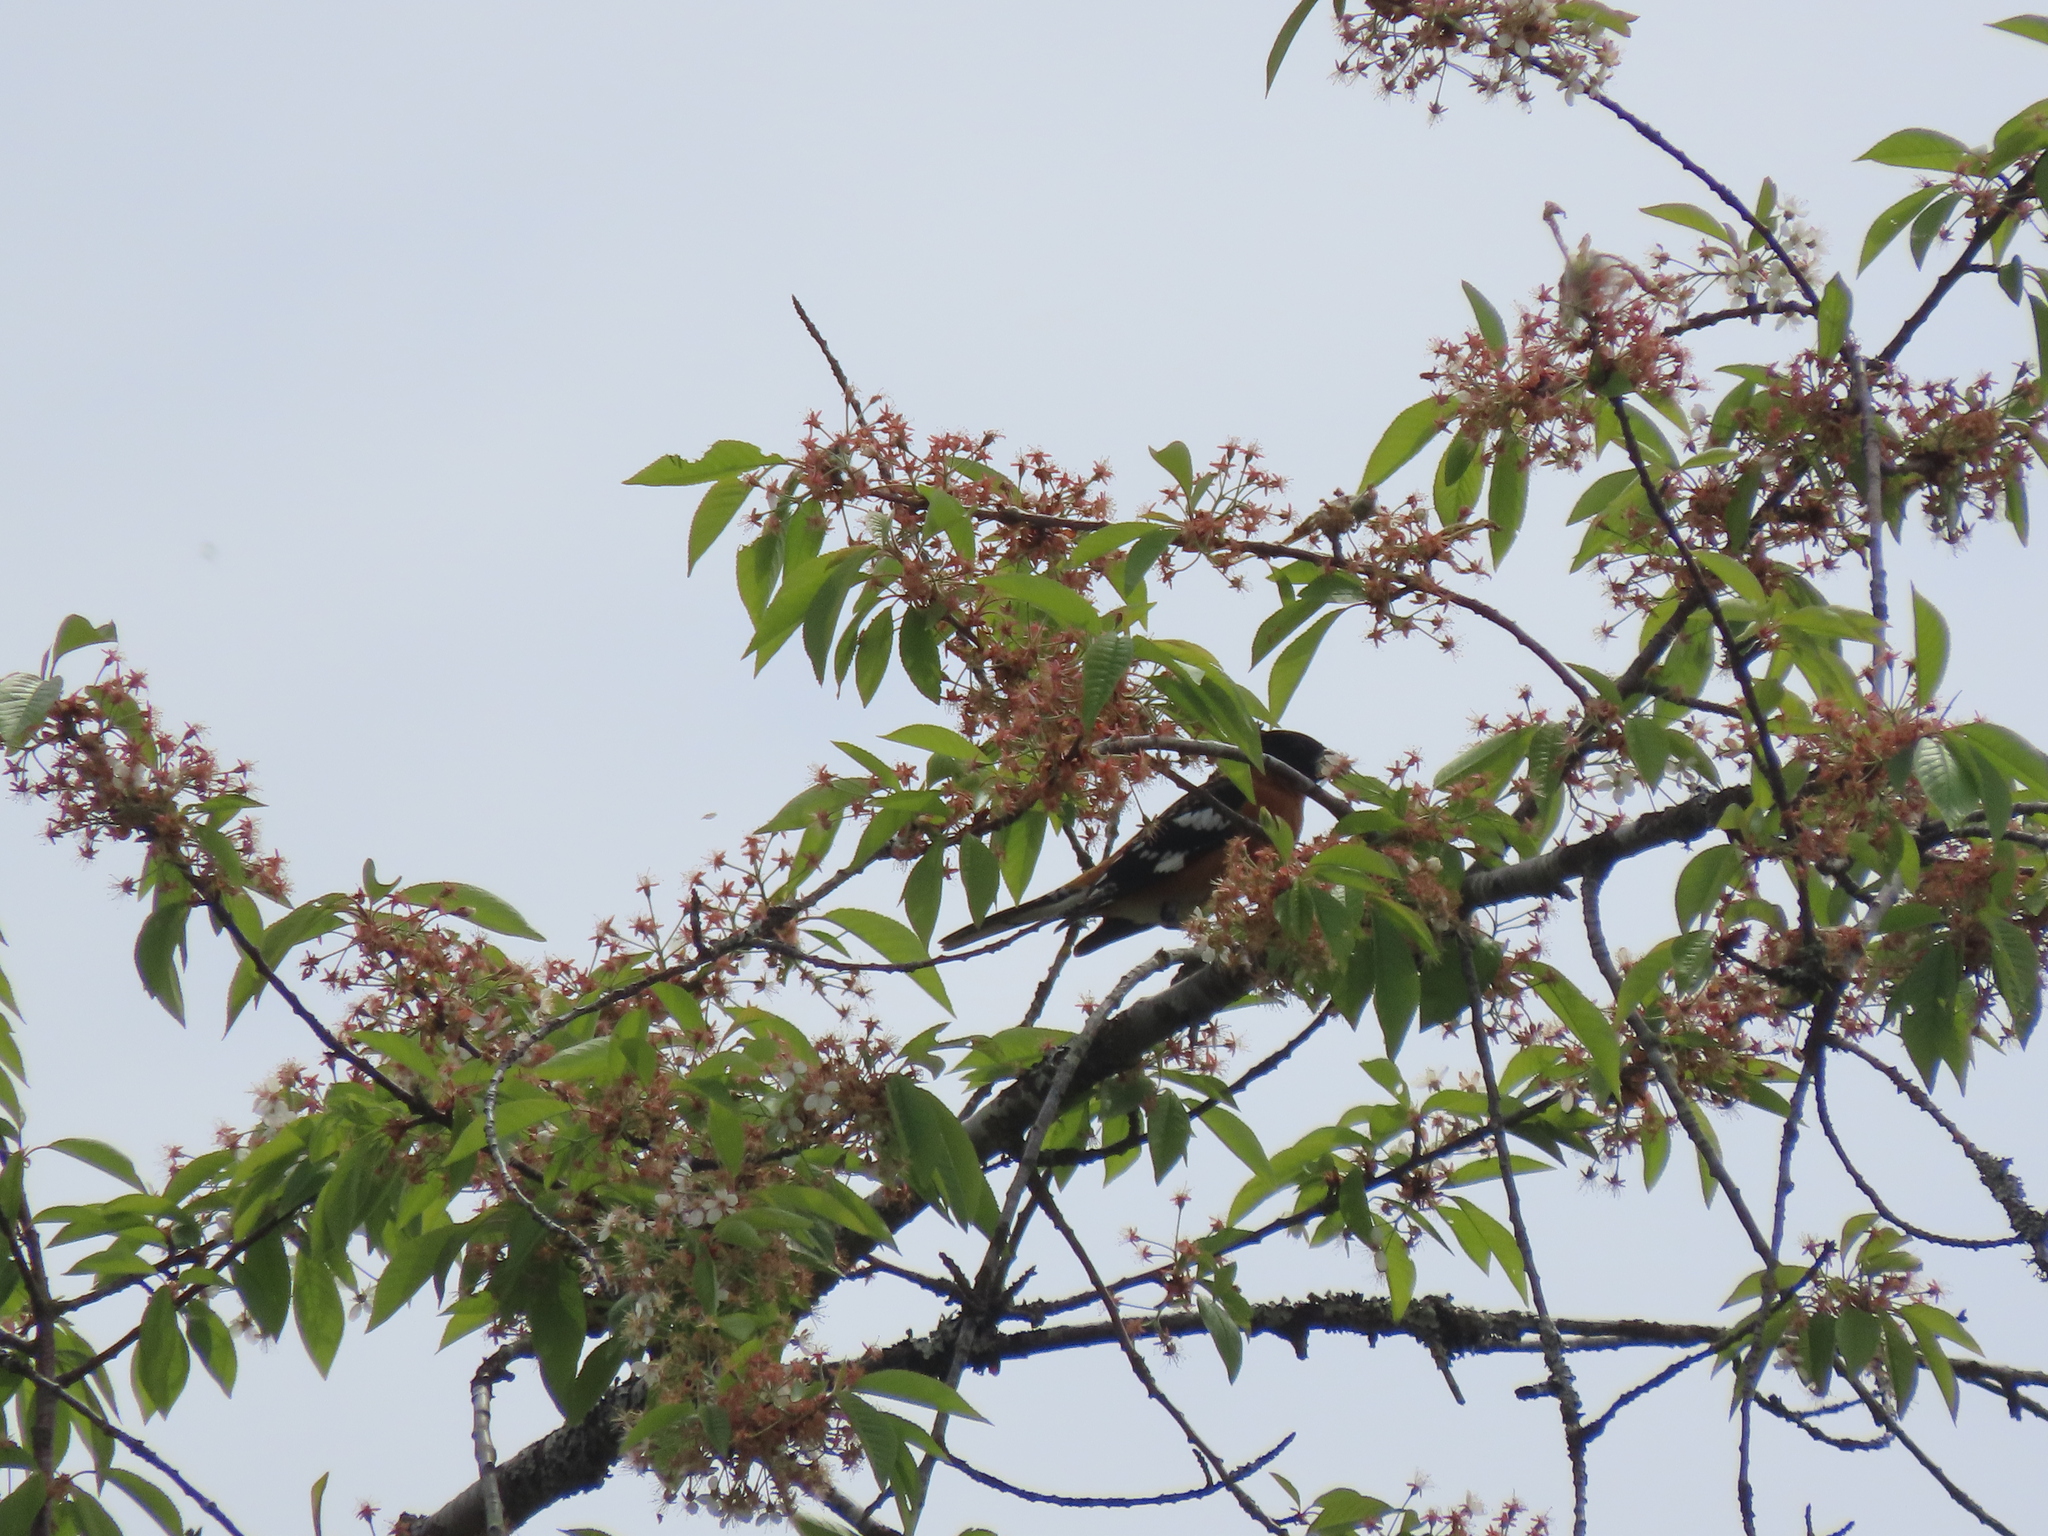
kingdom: Animalia
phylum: Chordata
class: Aves
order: Passeriformes
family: Cardinalidae
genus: Pheucticus
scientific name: Pheucticus melanocephalus
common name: Black-headed grosbeak
